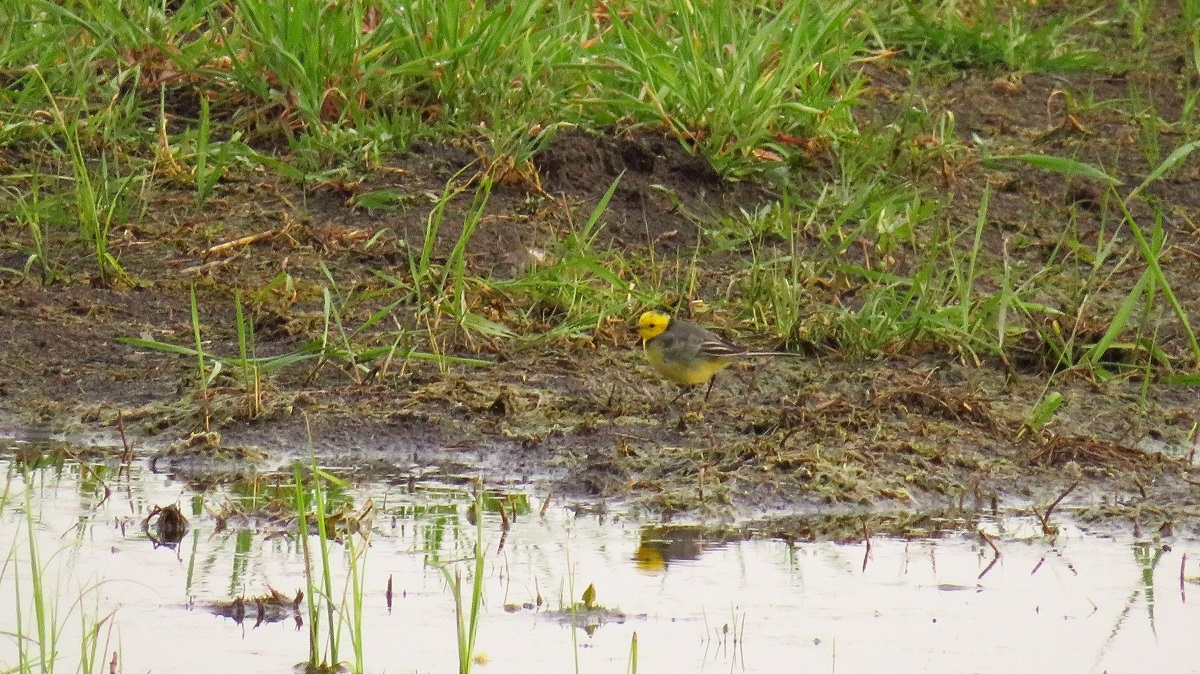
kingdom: Animalia
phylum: Chordata
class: Aves
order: Passeriformes
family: Motacillidae
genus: Motacilla
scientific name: Motacilla citreola
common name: Citrine wagtail
